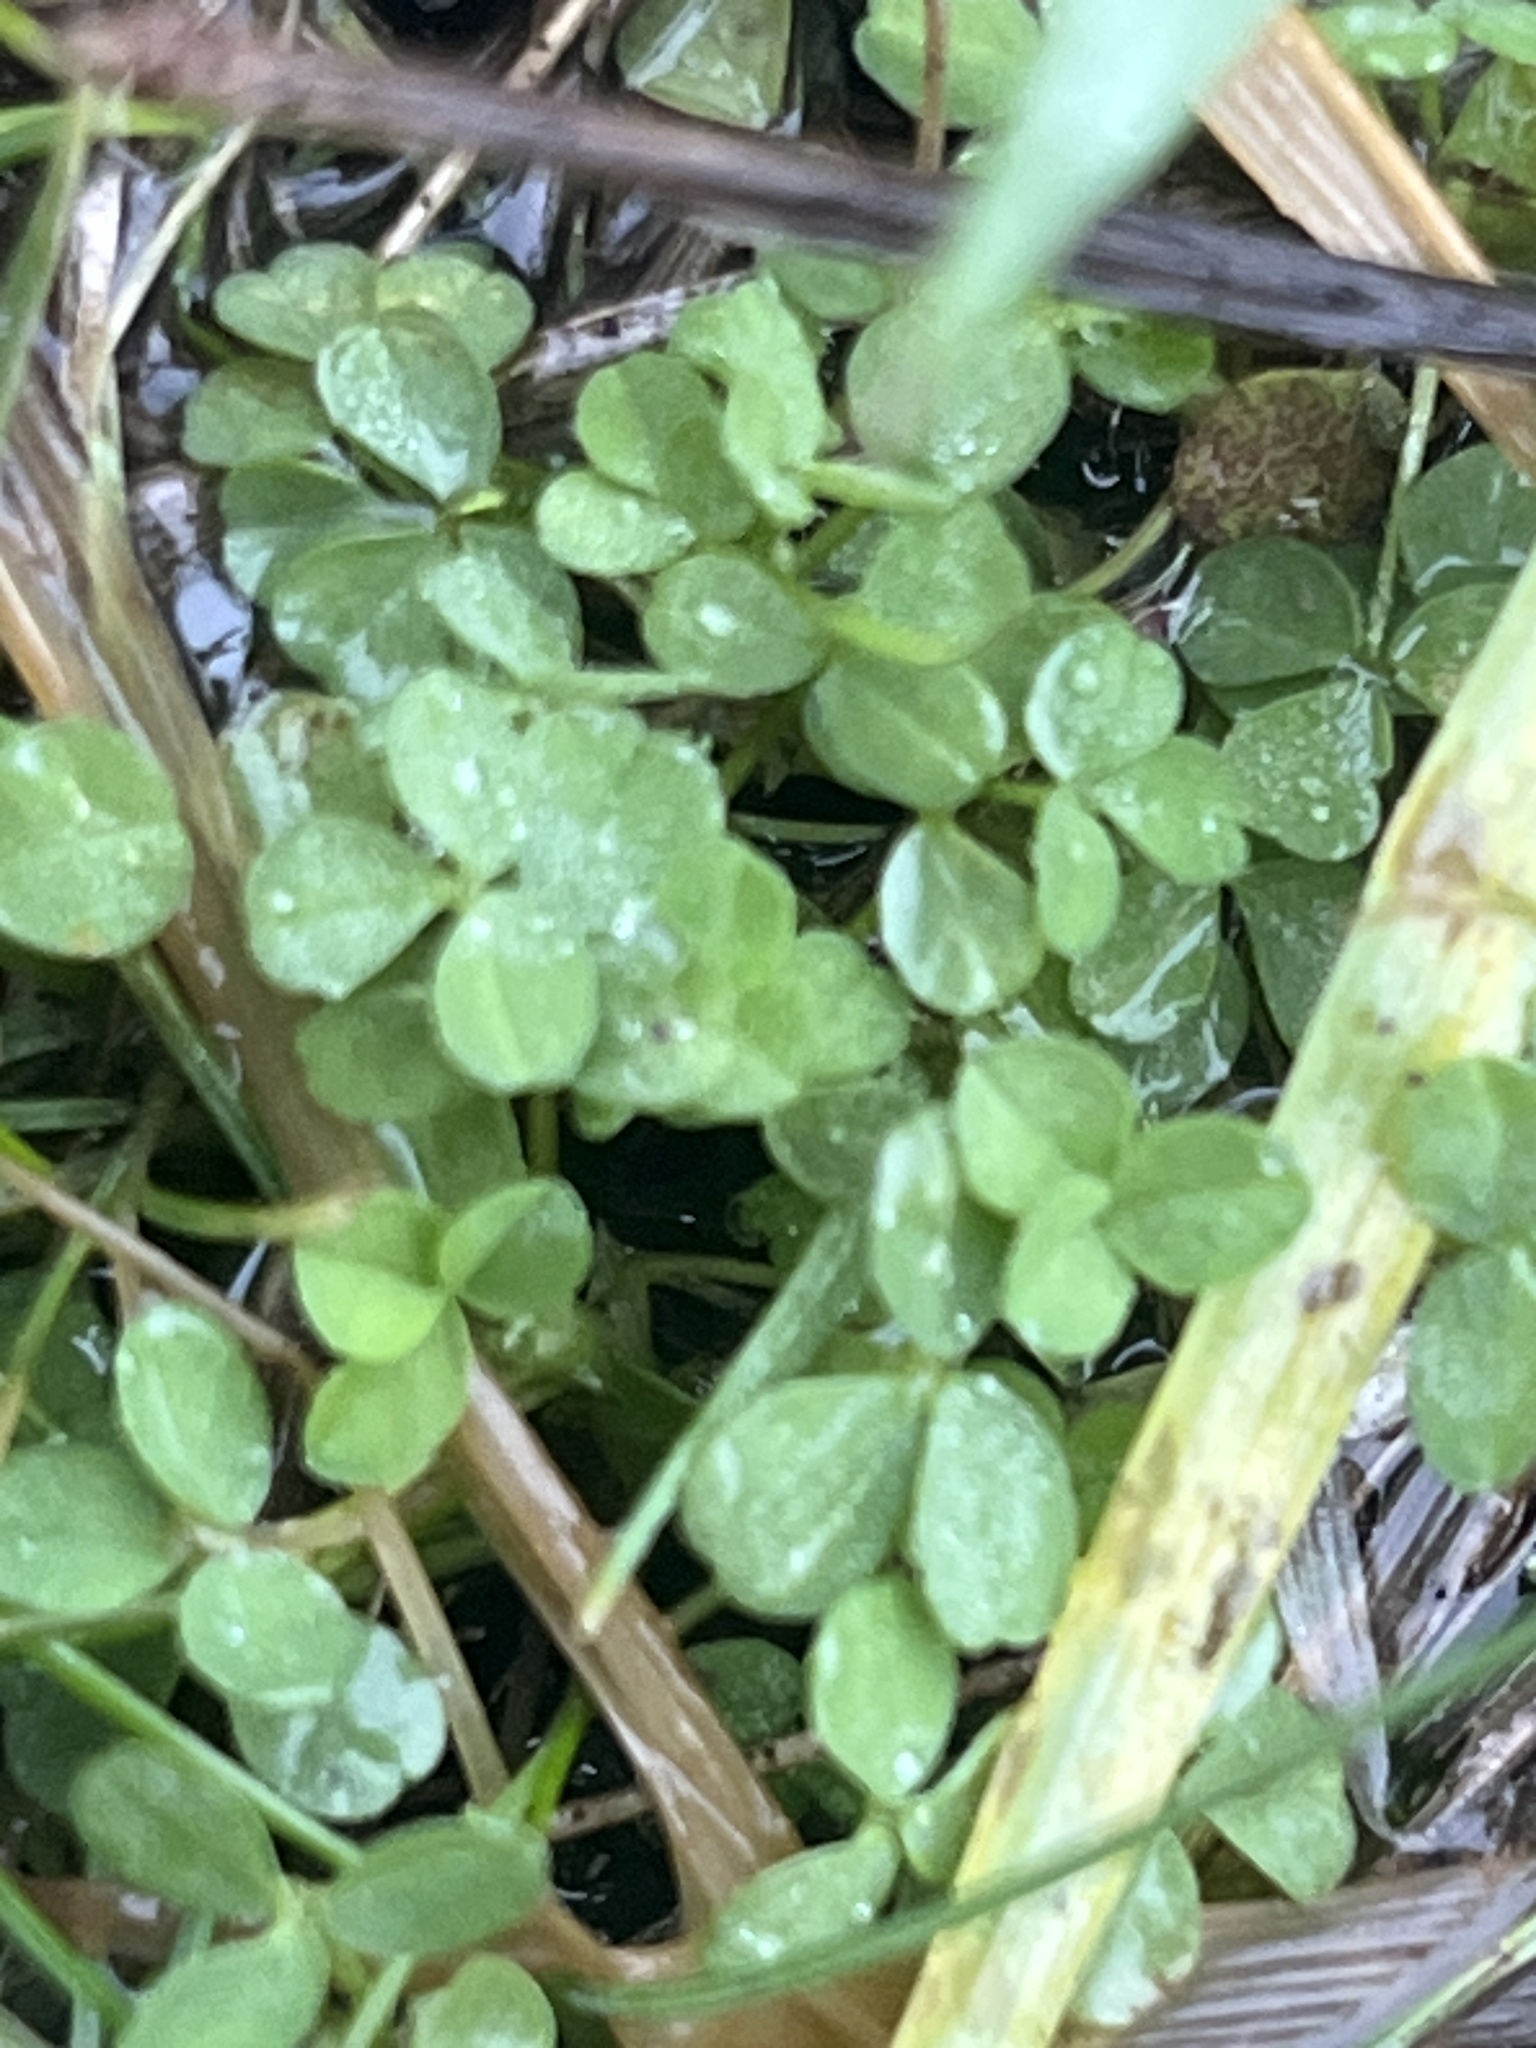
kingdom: Plantae
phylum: Tracheophyta
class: Magnoliopsida
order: Fabales
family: Fabaceae
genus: Trifolium
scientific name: Trifolium repens
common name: White clover
